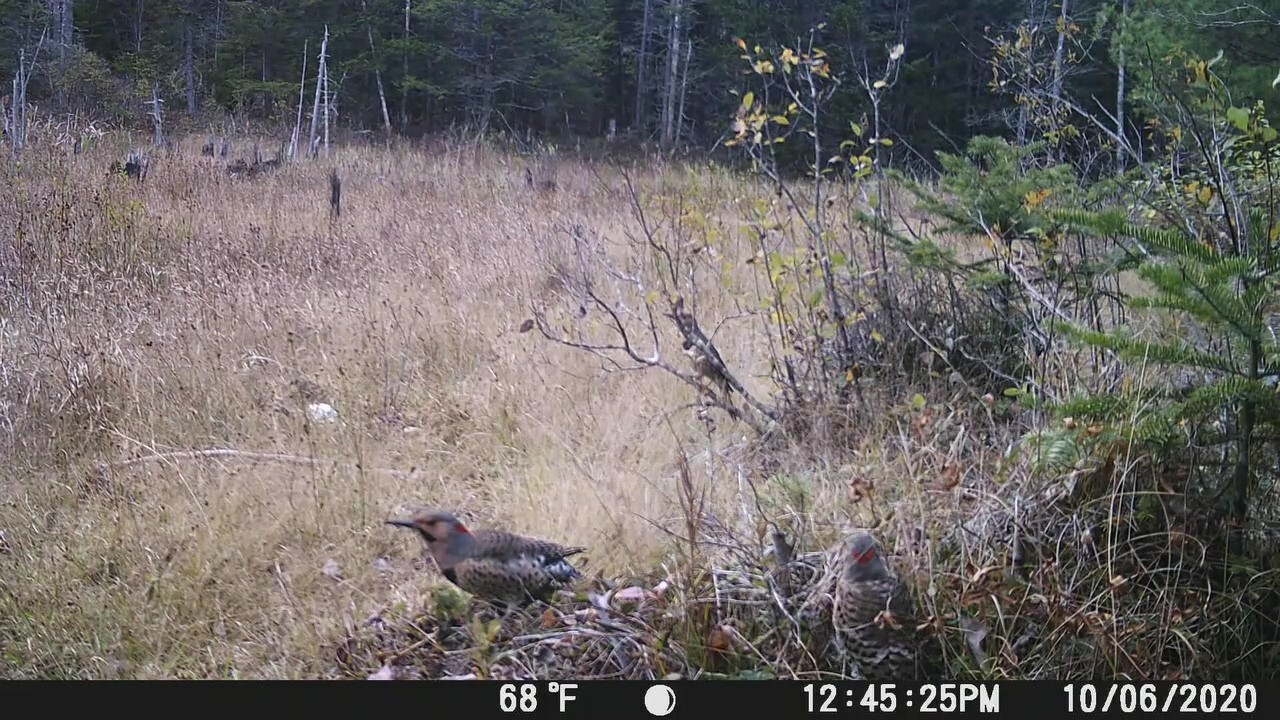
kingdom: Animalia
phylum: Chordata
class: Aves
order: Piciformes
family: Picidae
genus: Colaptes
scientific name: Colaptes auratus
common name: Northern flicker
